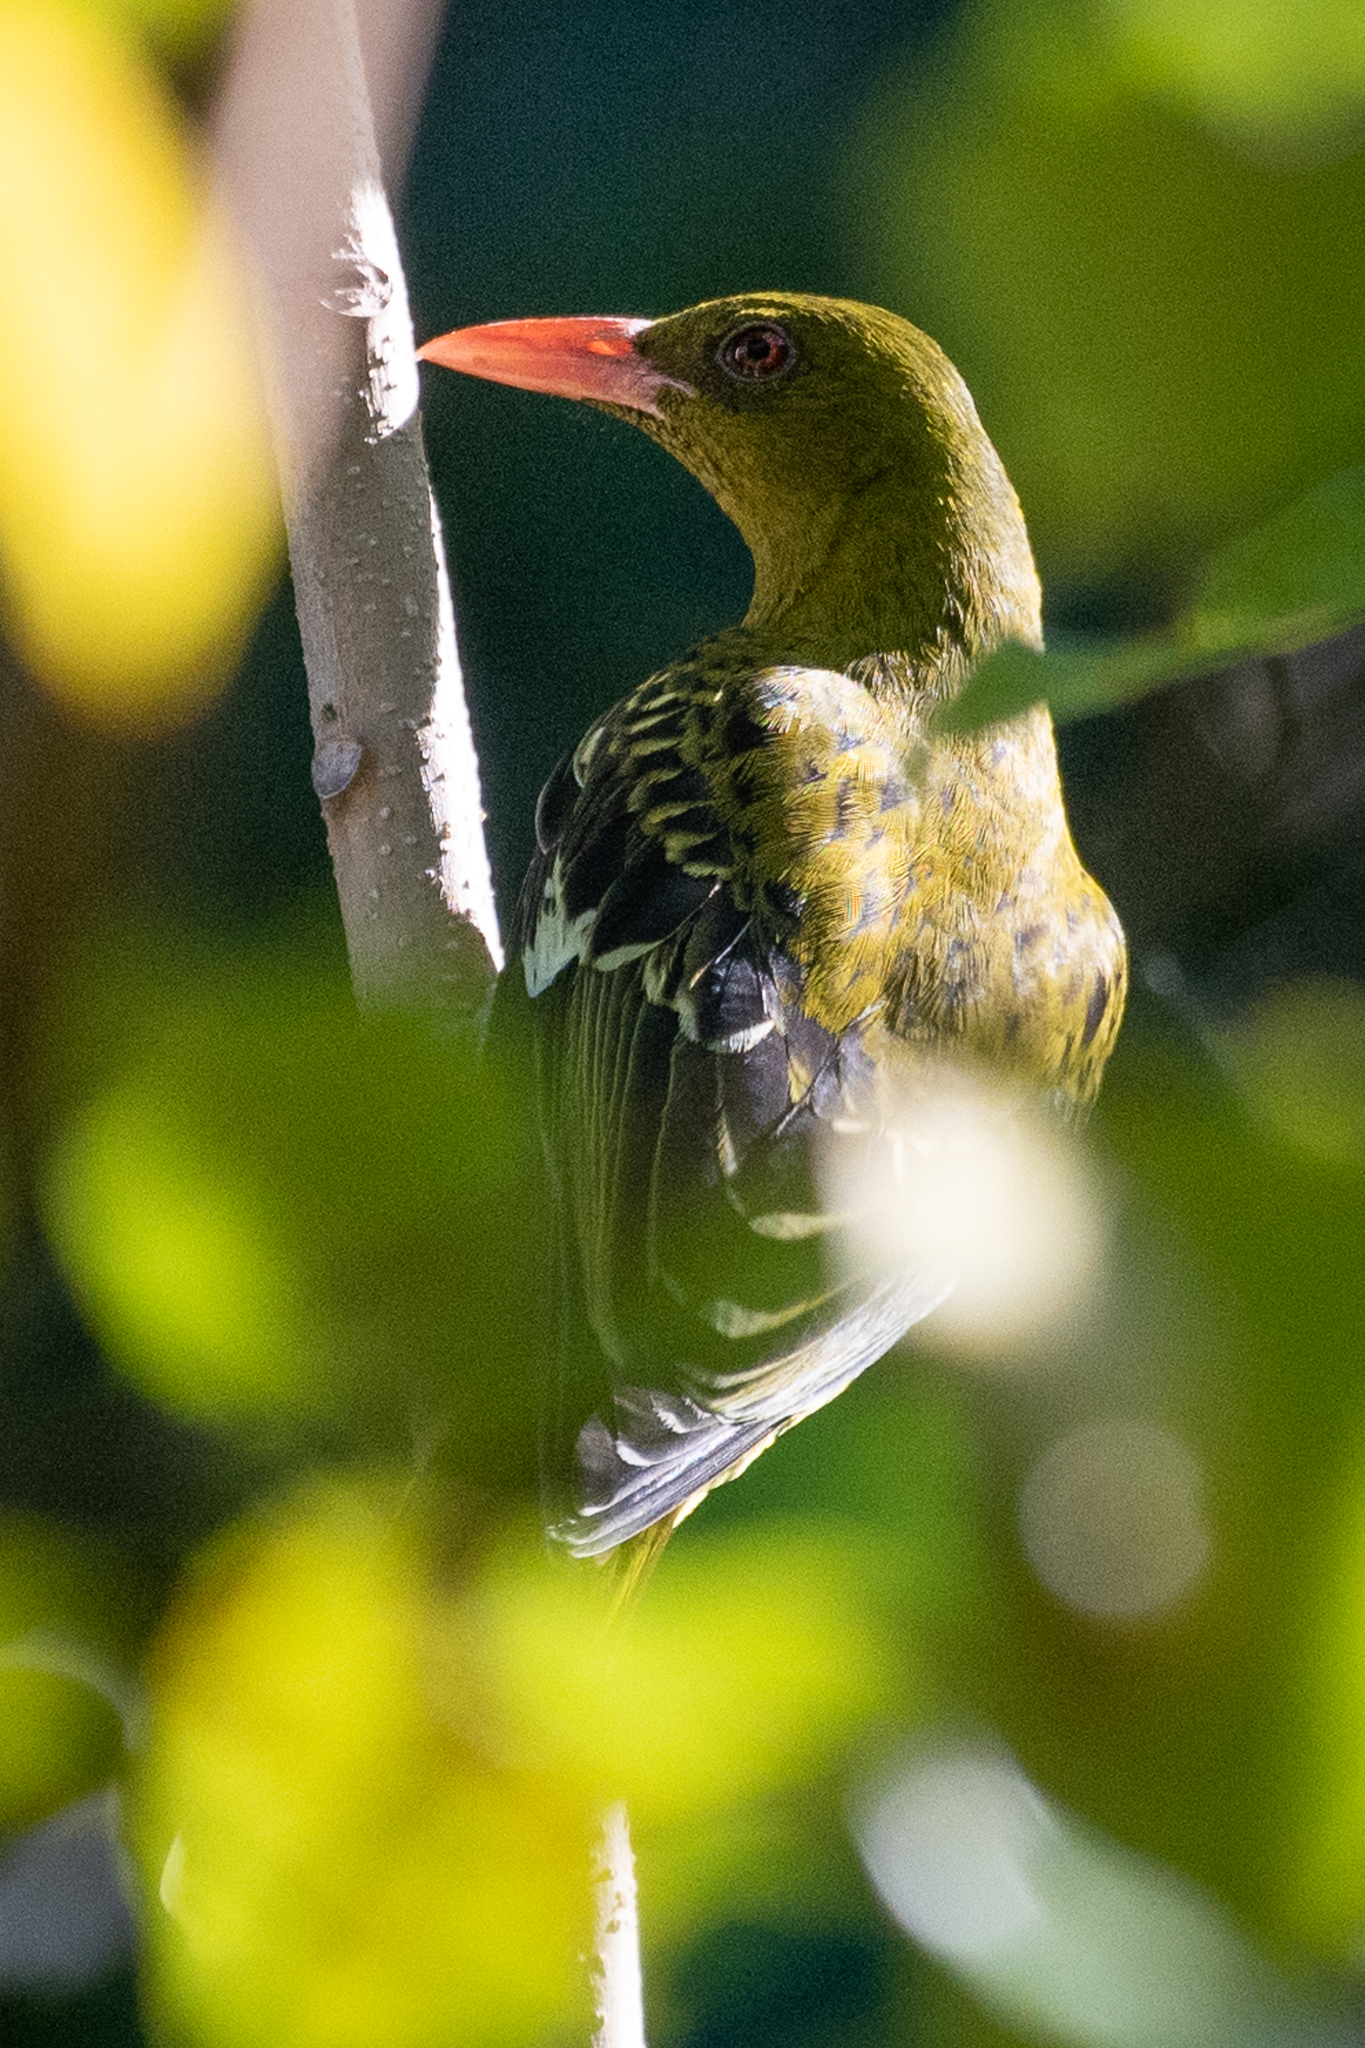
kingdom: Animalia
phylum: Chordata
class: Aves
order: Passeriformes
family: Oriolidae
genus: Oriolus
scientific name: Oriolus flavocinctus
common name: Green oriole
